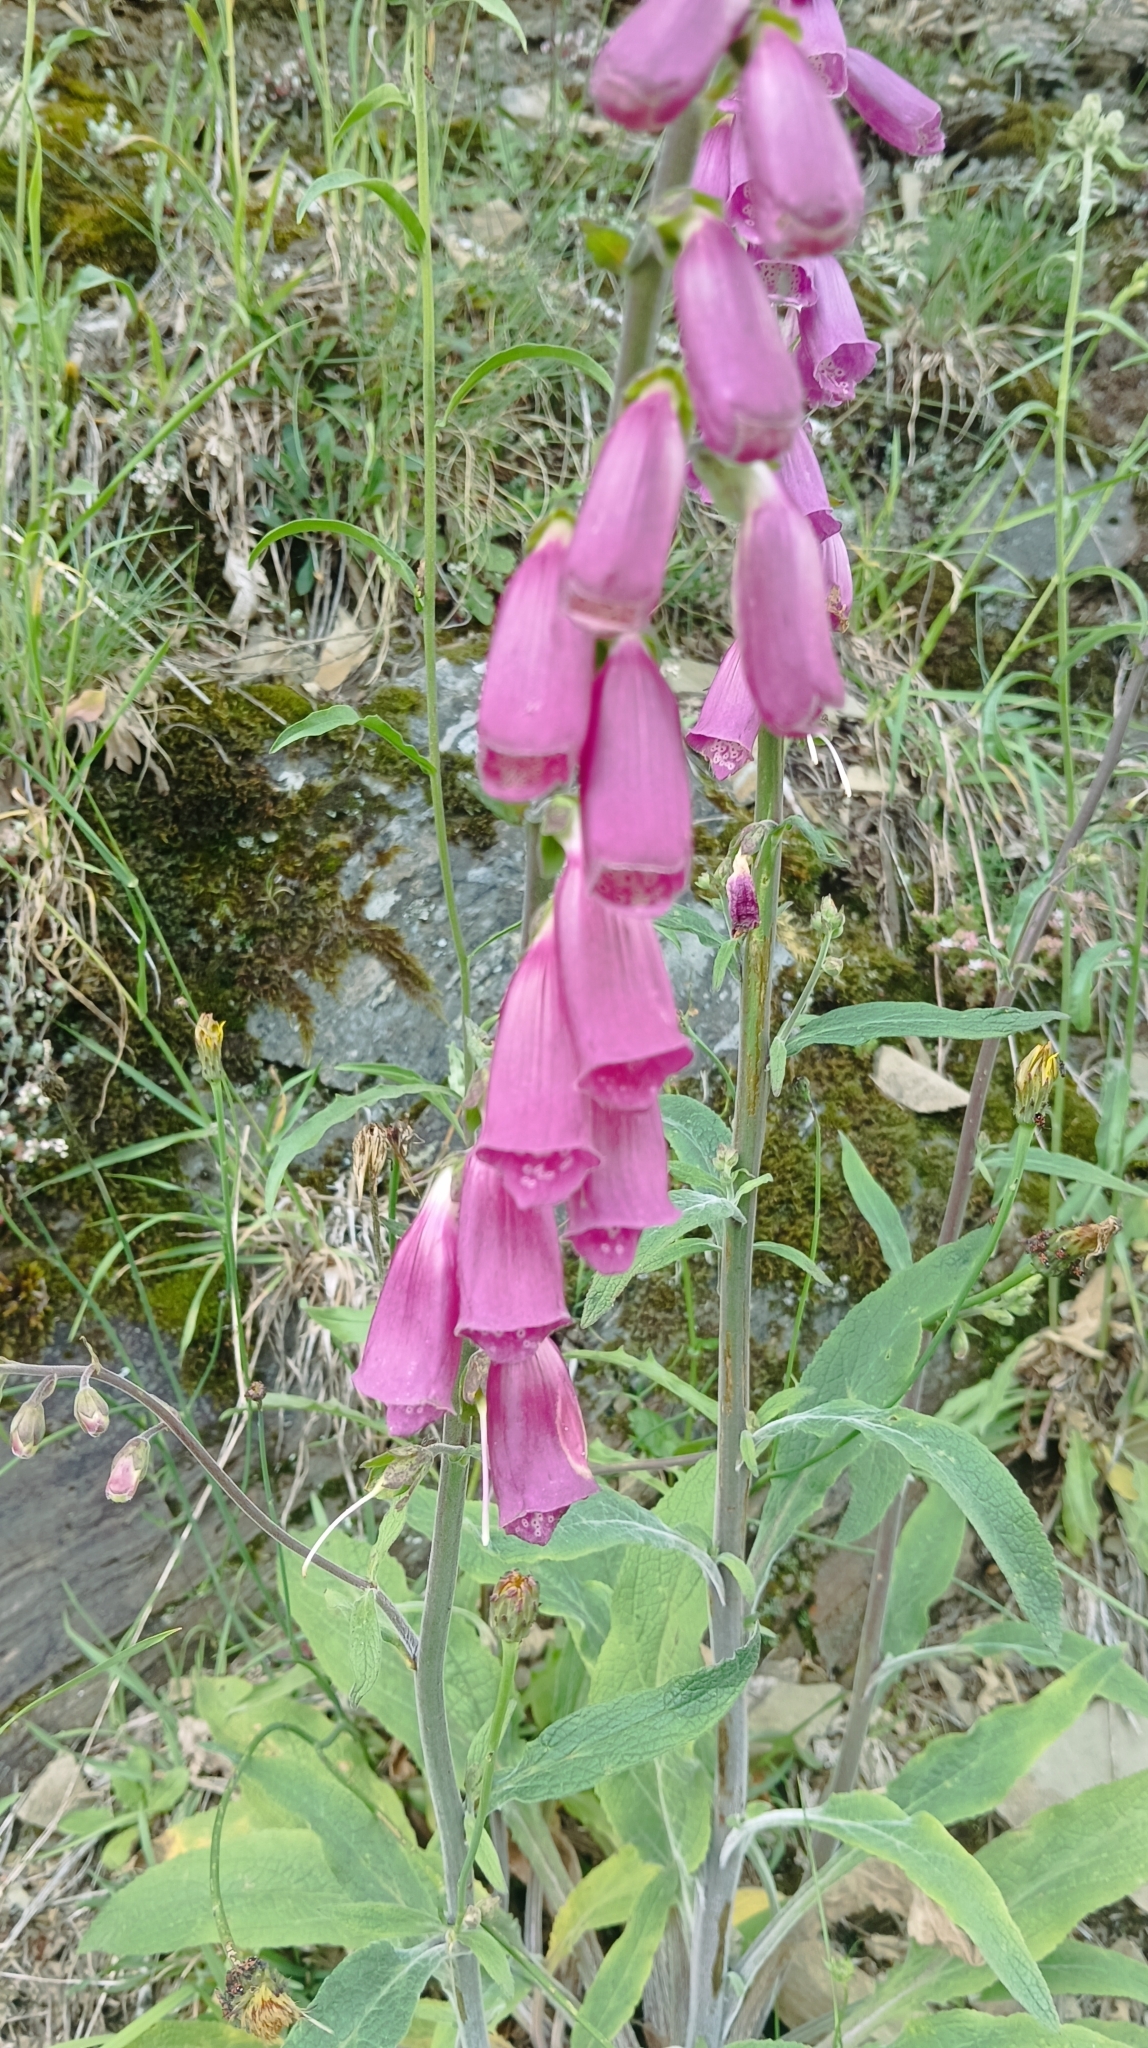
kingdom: Plantae
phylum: Tracheophyta
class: Magnoliopsida
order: Lamiales
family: Plantaginaceae
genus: Digitalis
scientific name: Digitalis purpurea
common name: Foxglove
